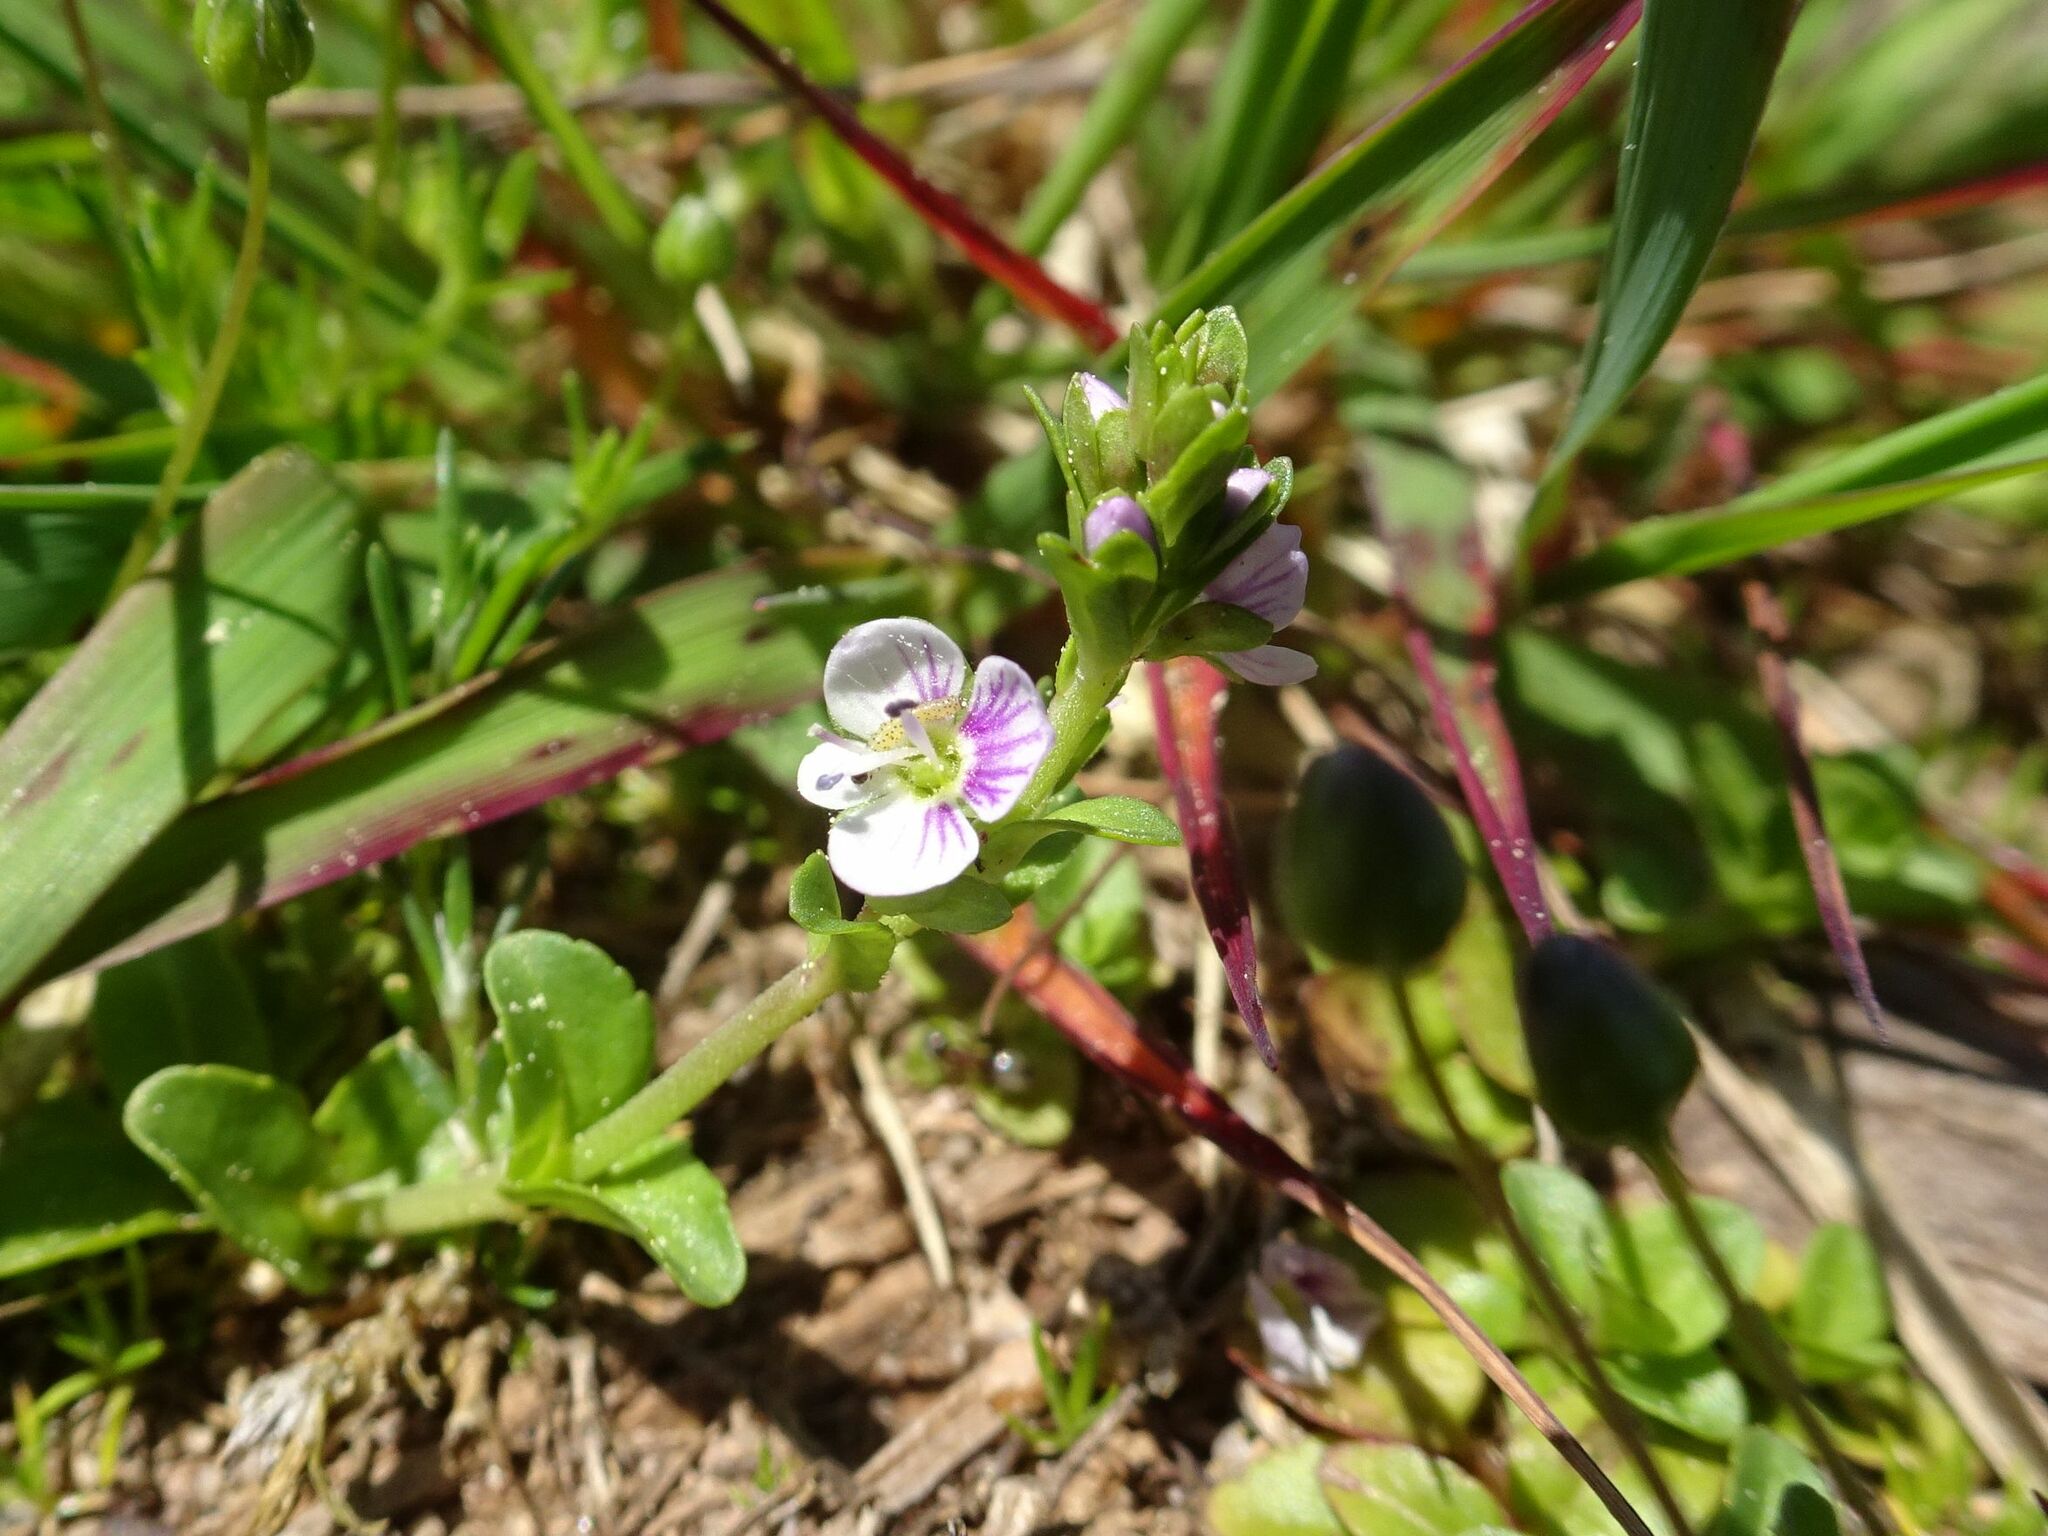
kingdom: Plantae
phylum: Tracheophyta
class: Magnoliopsida
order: Lamiales
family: Plantaginaceae
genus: Veronica
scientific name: Veronica serpyllifolia
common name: Thyme-leaved speedwell
